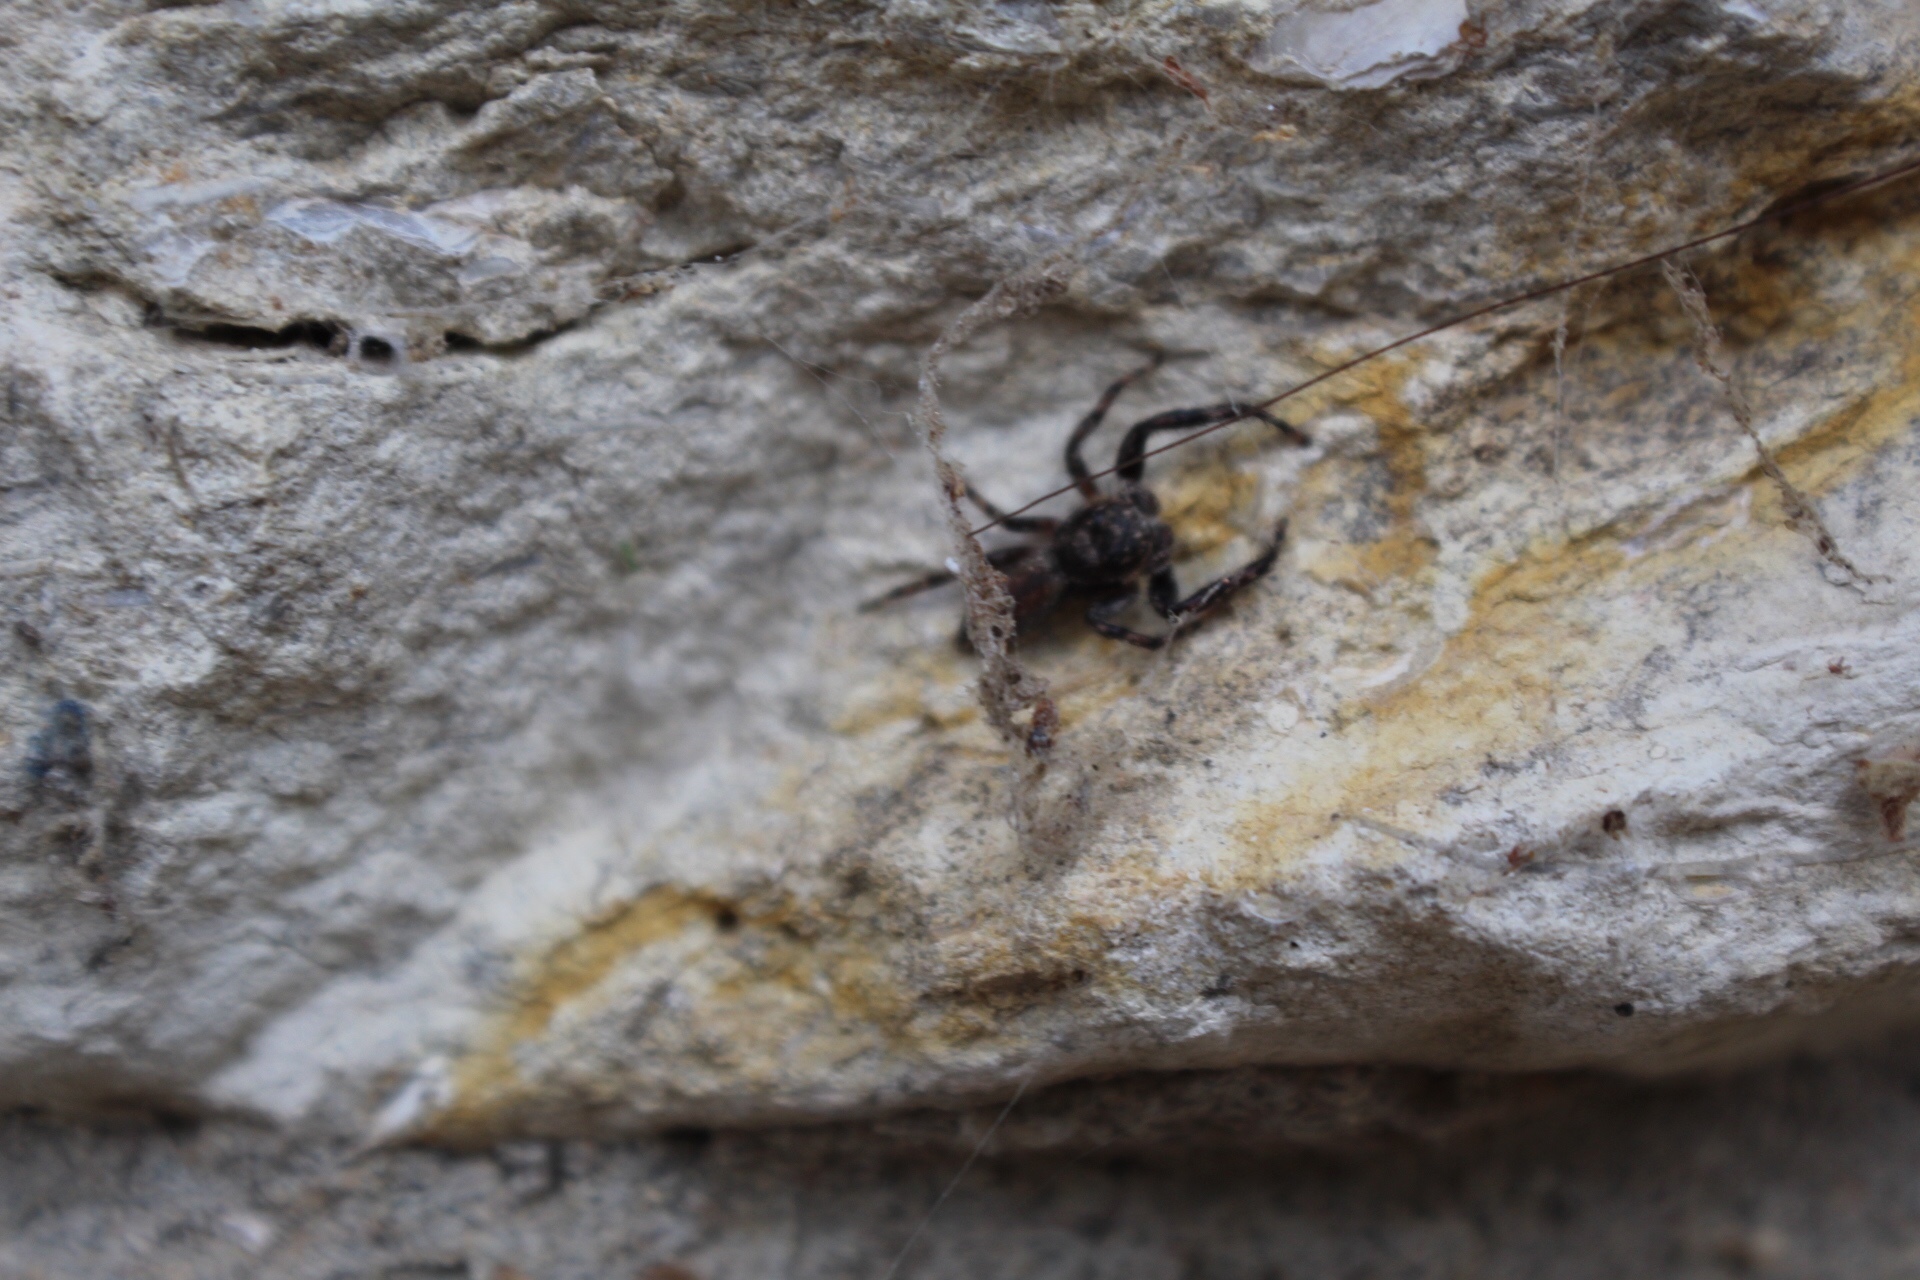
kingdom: Animalia
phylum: Arthropoda
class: Arachnida
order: Araneae
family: Salticidae
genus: Platycryptus
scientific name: Platycryptus undatus
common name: Tan jumping spider
